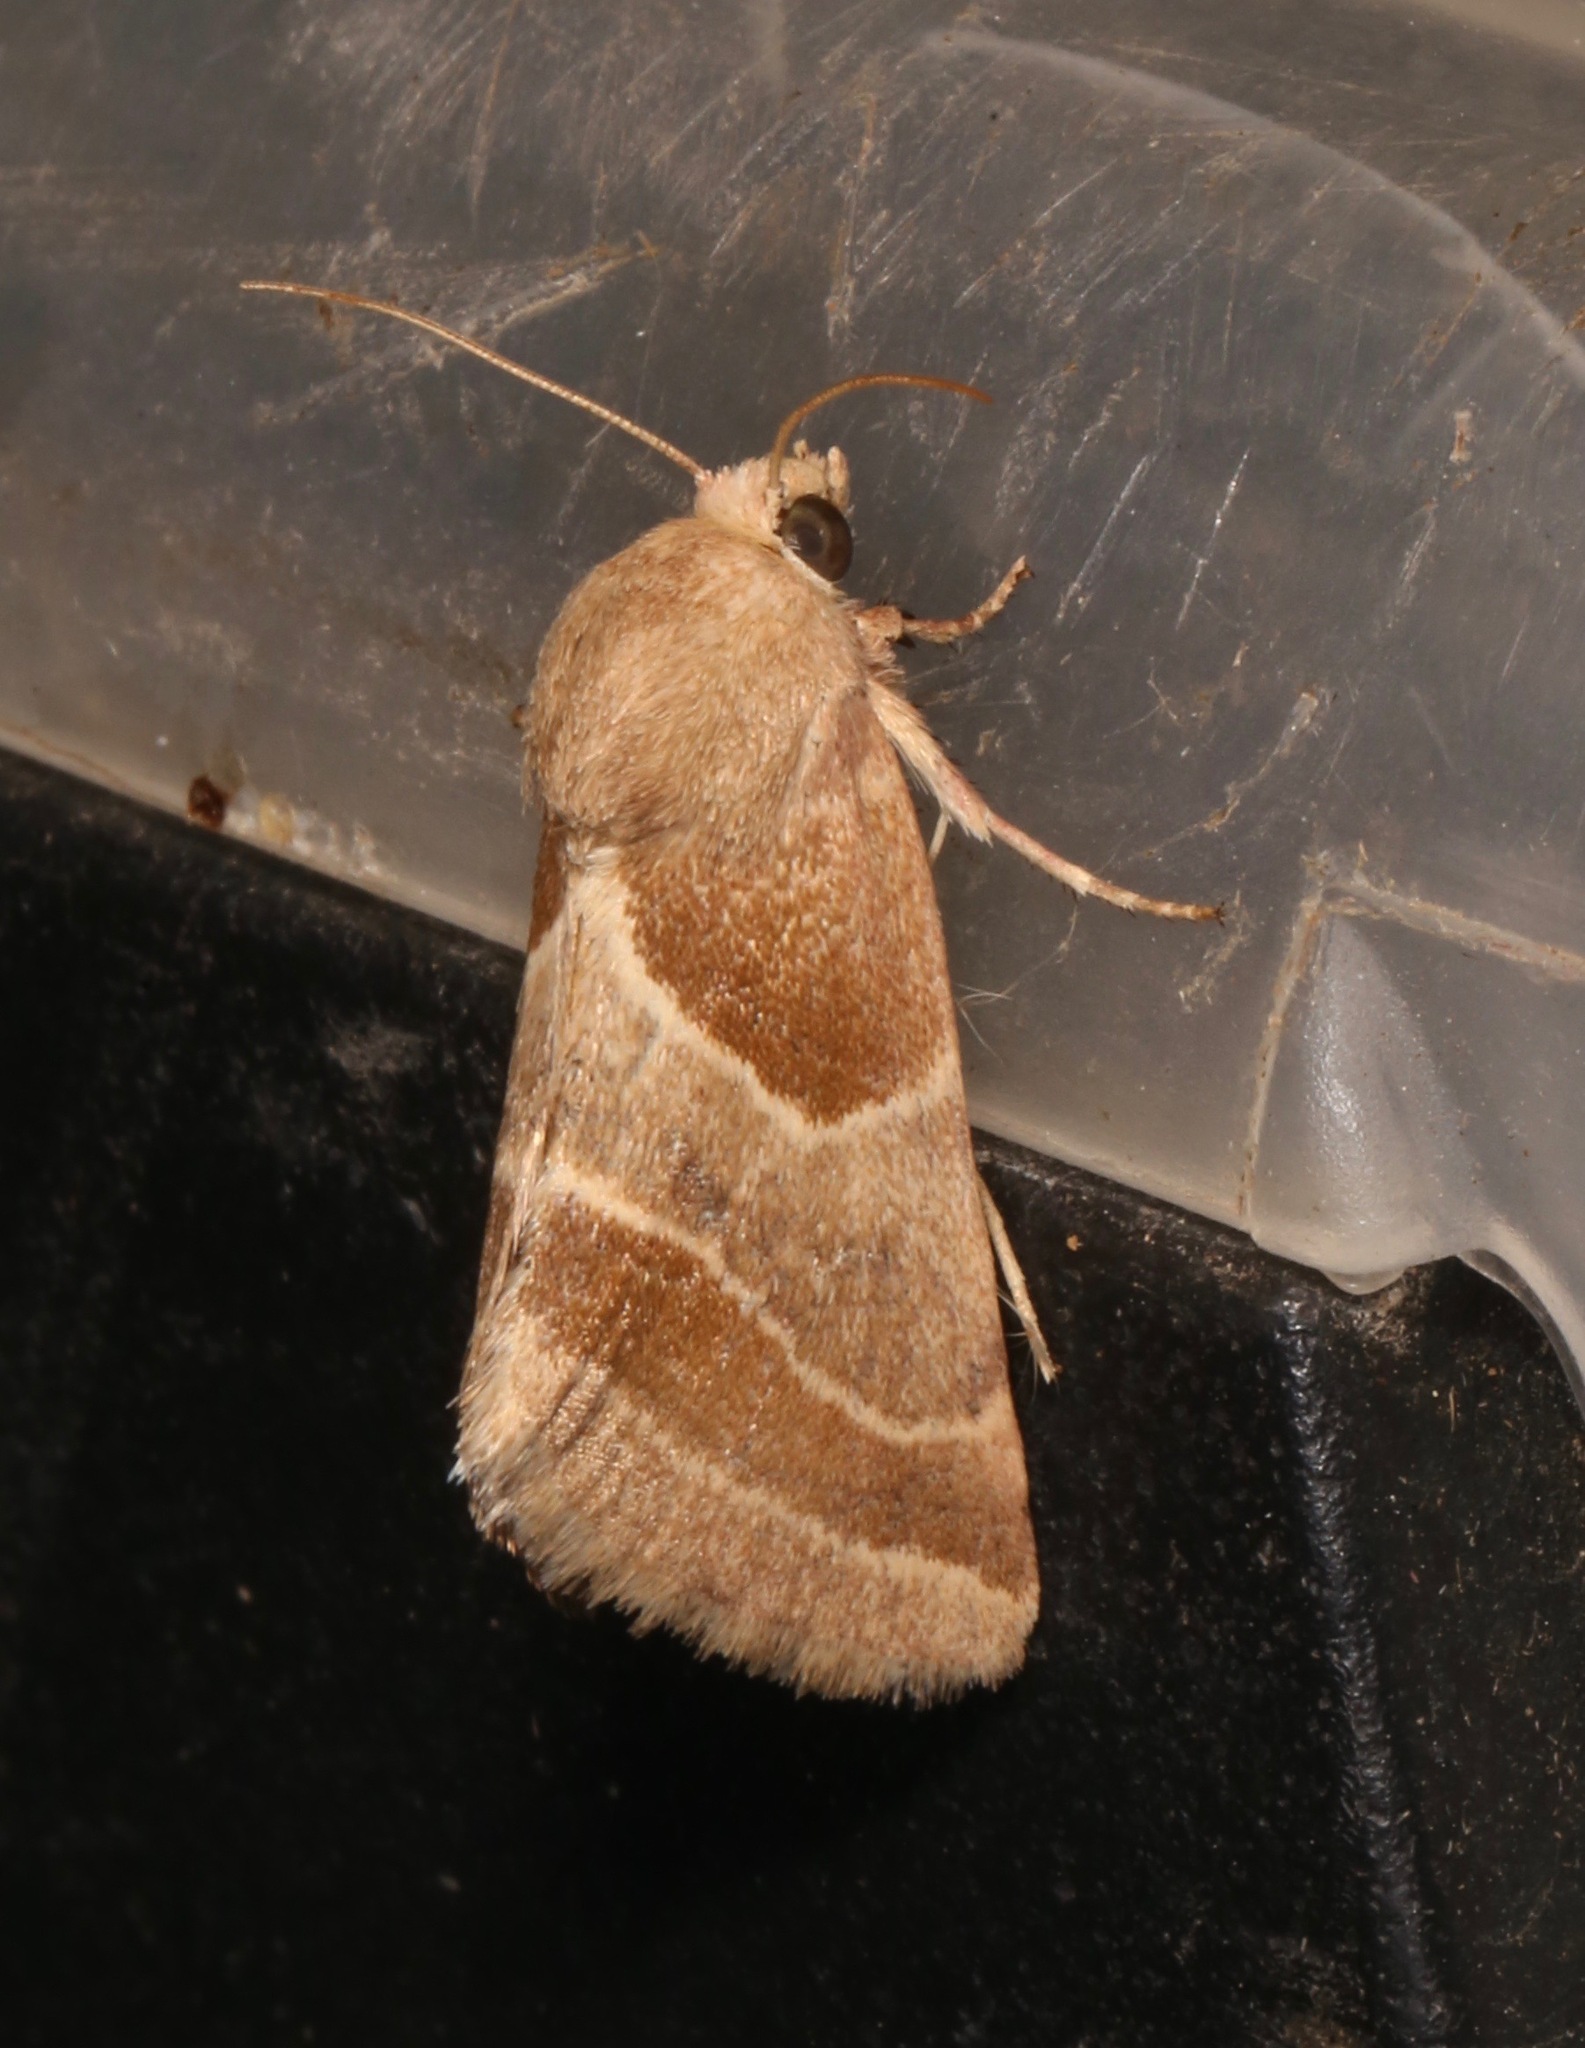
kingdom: Animalia
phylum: Arthropoda
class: Insecta
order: Lepidoptera
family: Noctuidae
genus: Schinia
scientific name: Schinia oleagina
